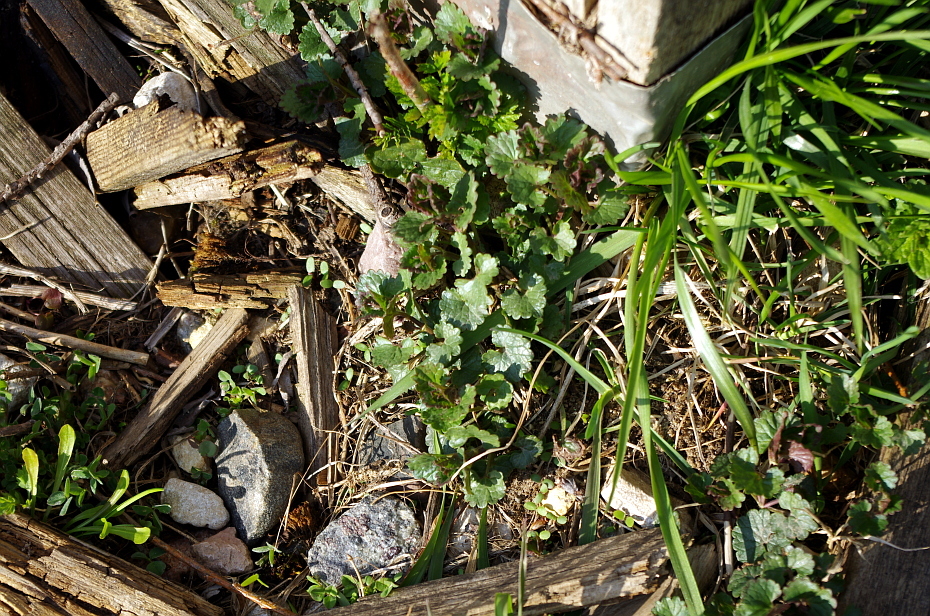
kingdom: Plantae
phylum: Tracheophyta
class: Magnoliopsida
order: Lamiales
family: Lamiaceae
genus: Glechoma
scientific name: Glechoma hederacea
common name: Ground ivy
